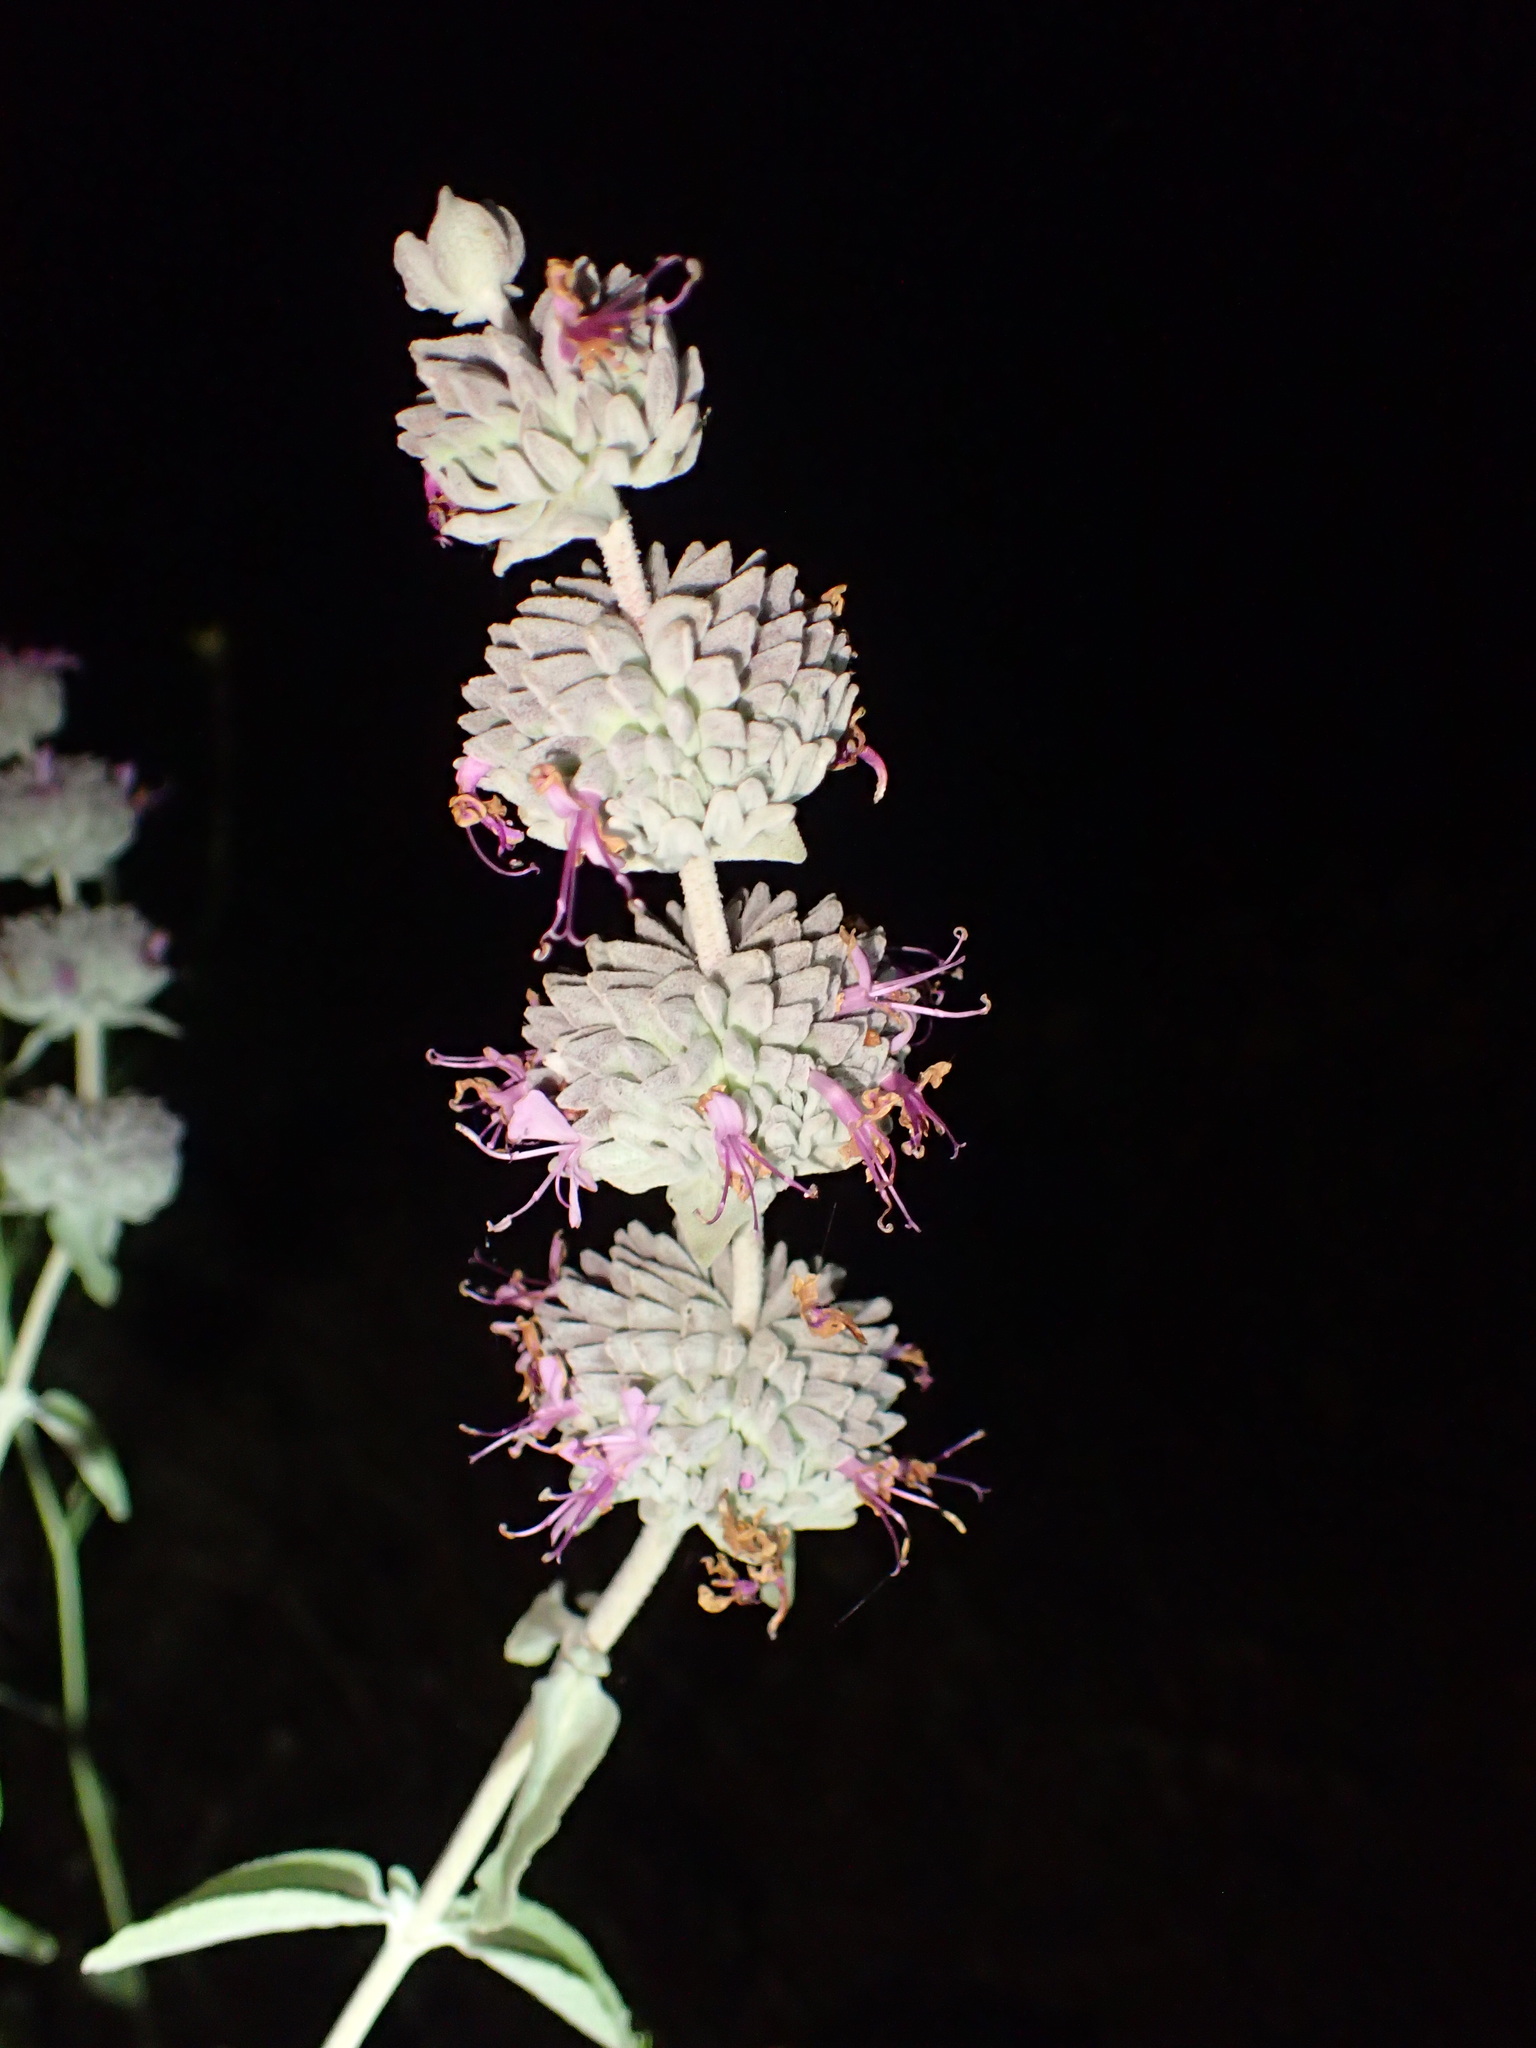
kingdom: Plantae
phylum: Tracheophyta
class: Magnoliopsida
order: Lamiales
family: Lamiaceae
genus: Salvia
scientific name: Salvia leucophylla
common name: Purple sage
